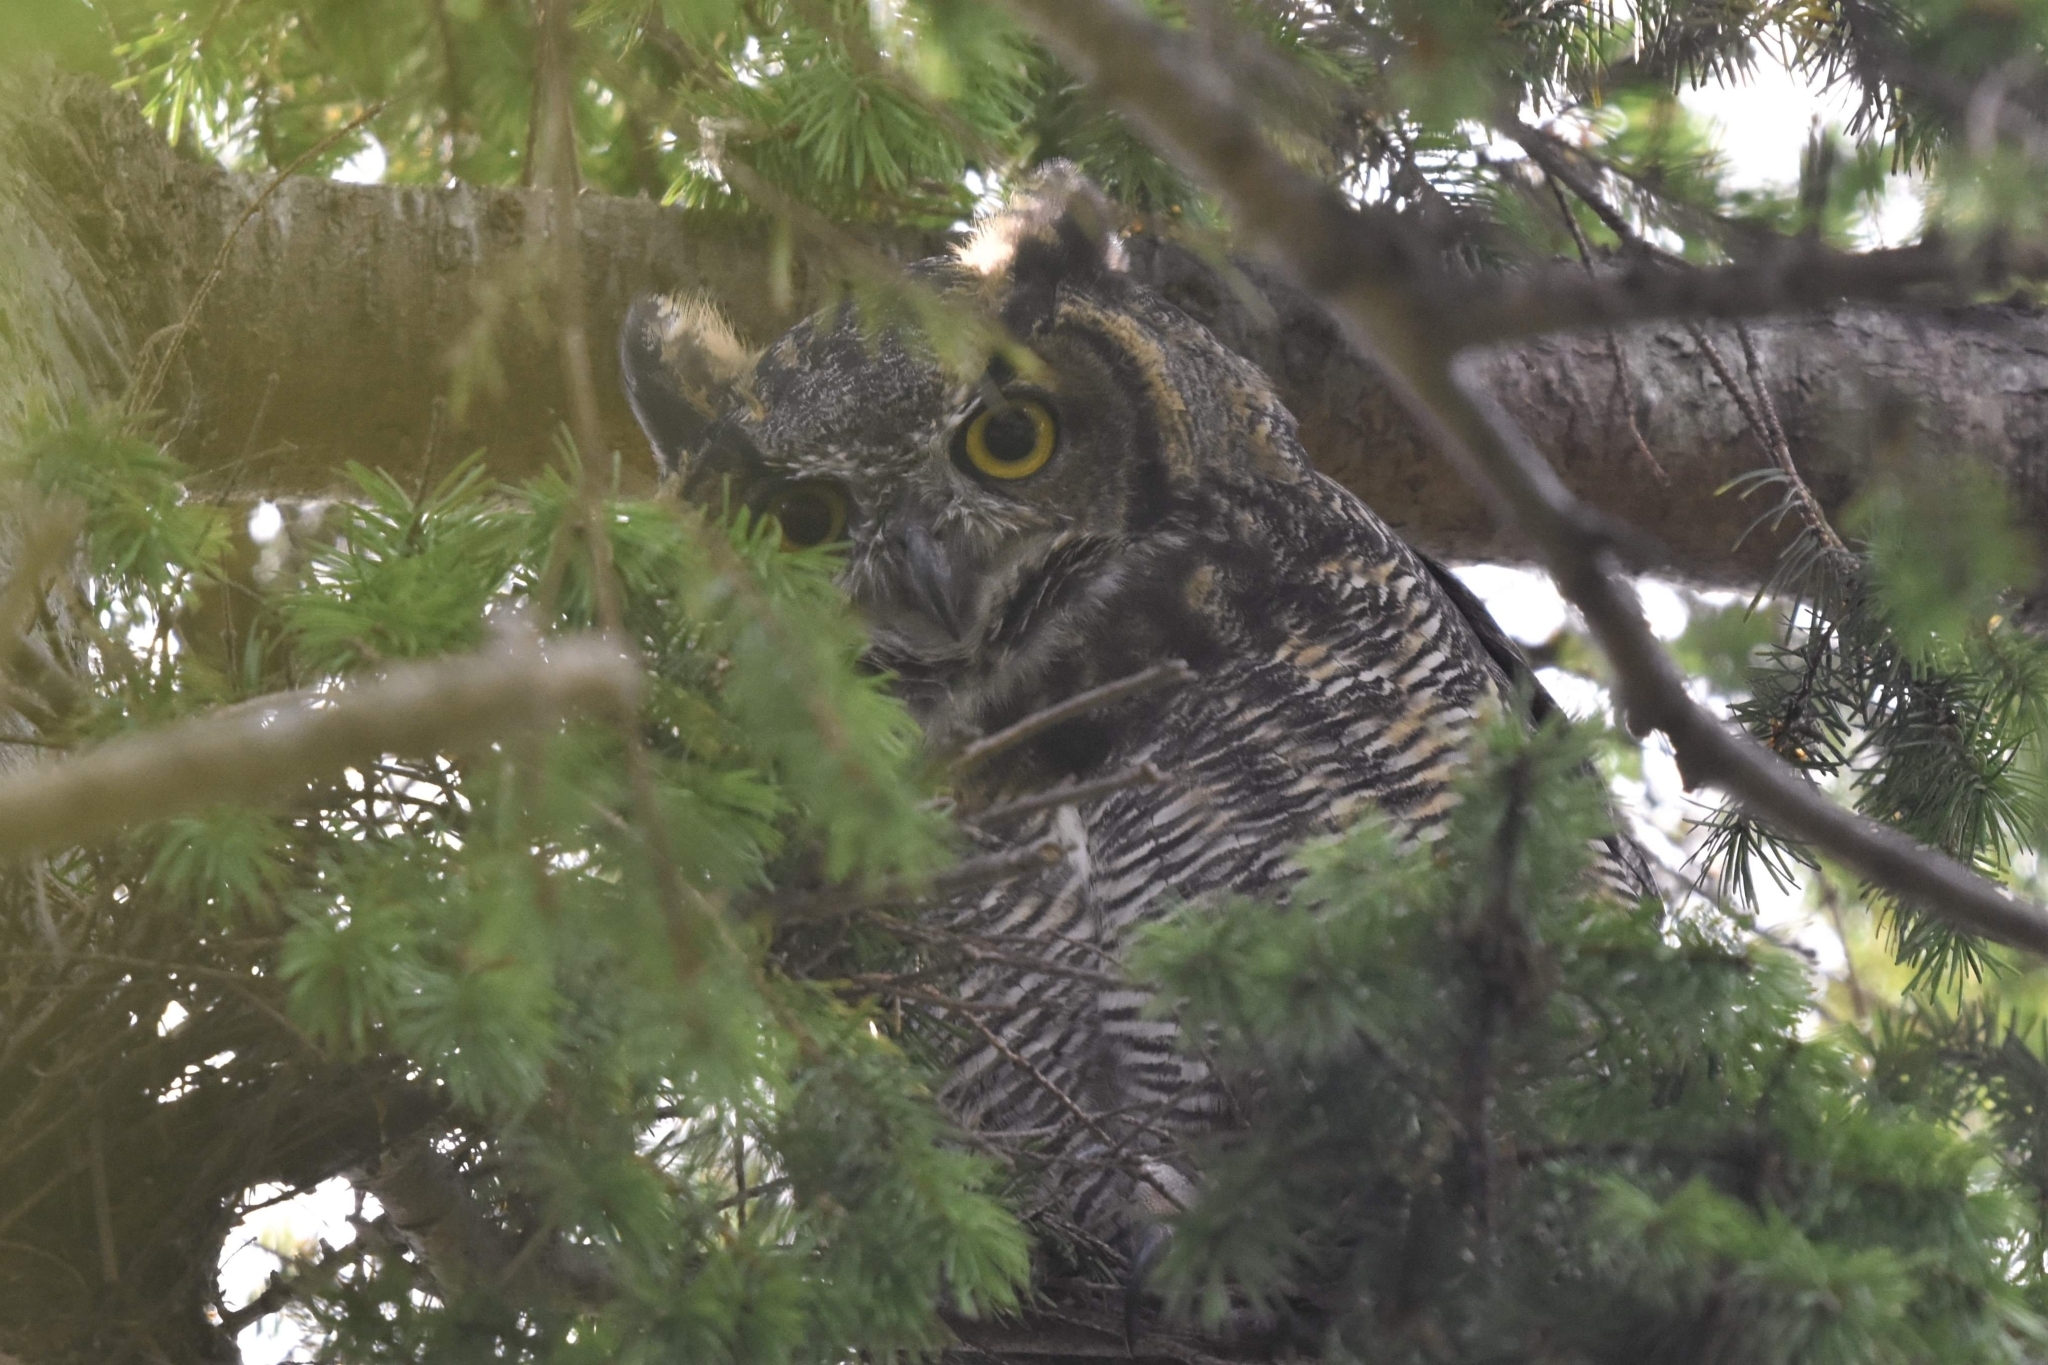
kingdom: Animalia
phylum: Chordata
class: Aves
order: Strigiformes
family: Strigidae
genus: Bubo
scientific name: Bubo virginianus
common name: Great horned owl
